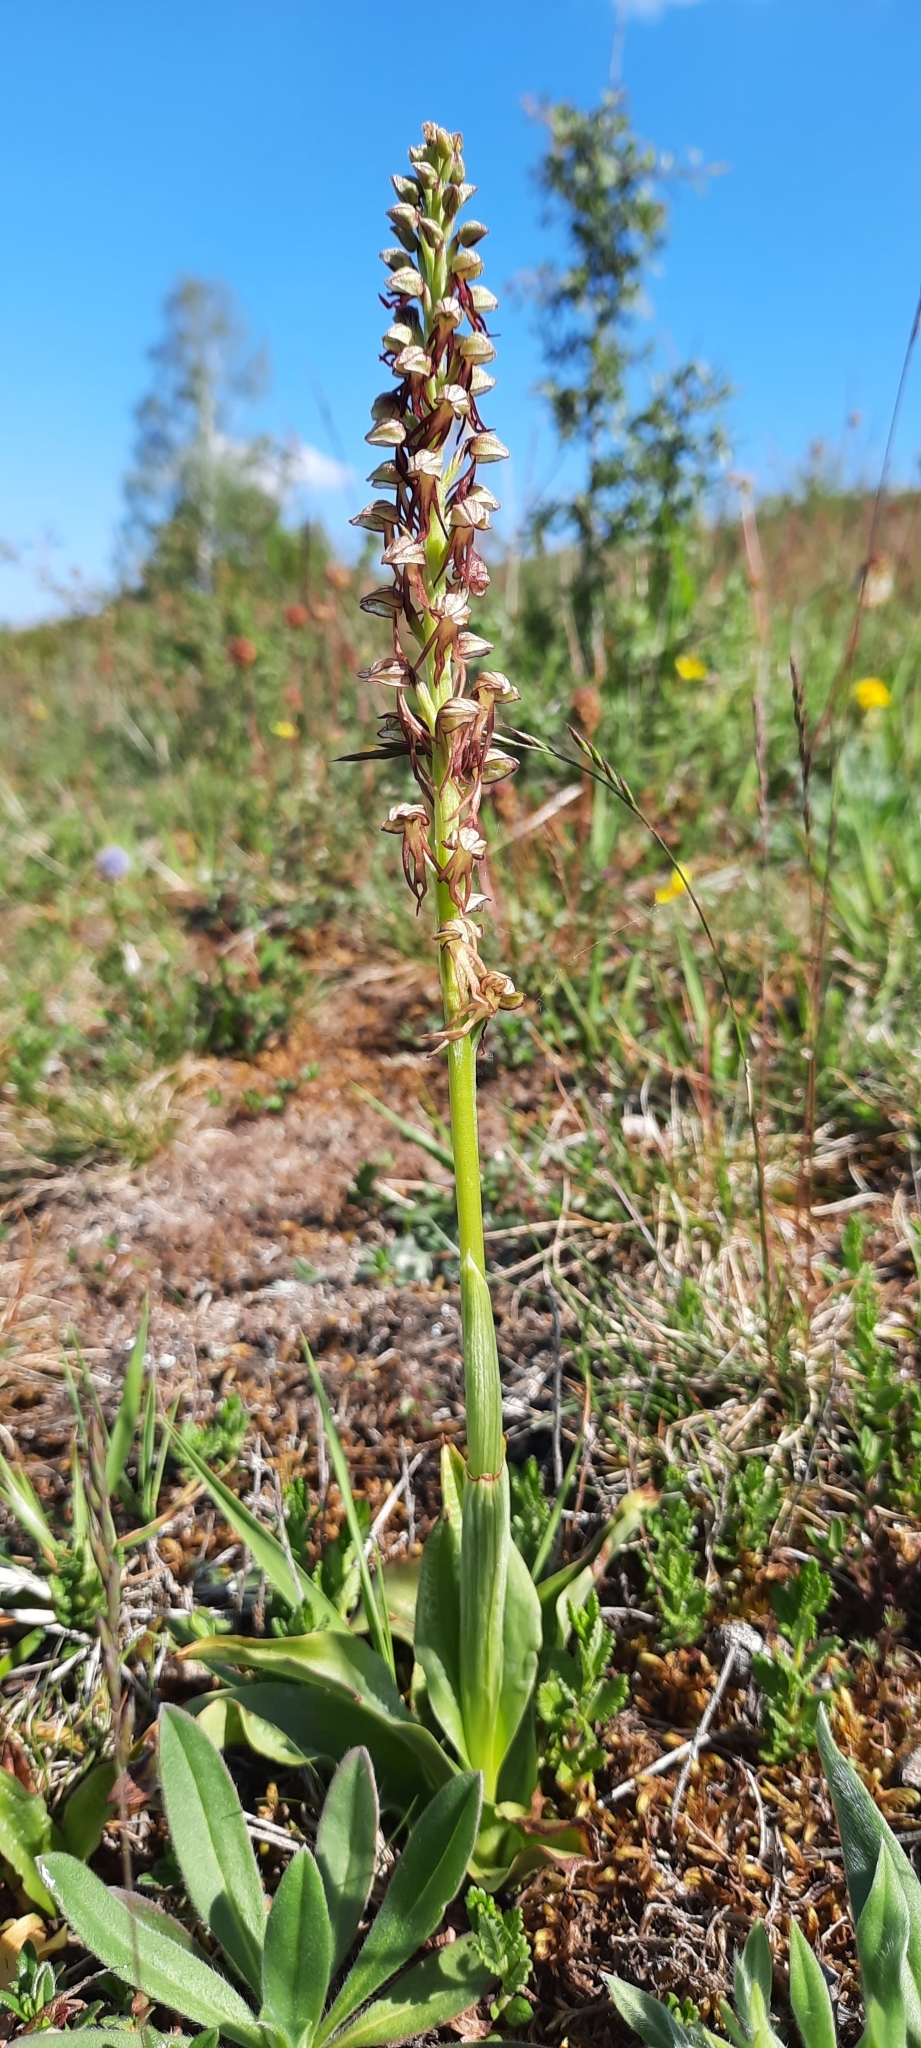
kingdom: Plantae
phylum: Tracheophyta
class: Liliopsida
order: Asparagales
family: Orchidaceae
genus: Orchis
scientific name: Orchis anthropophora
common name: Man orchid
